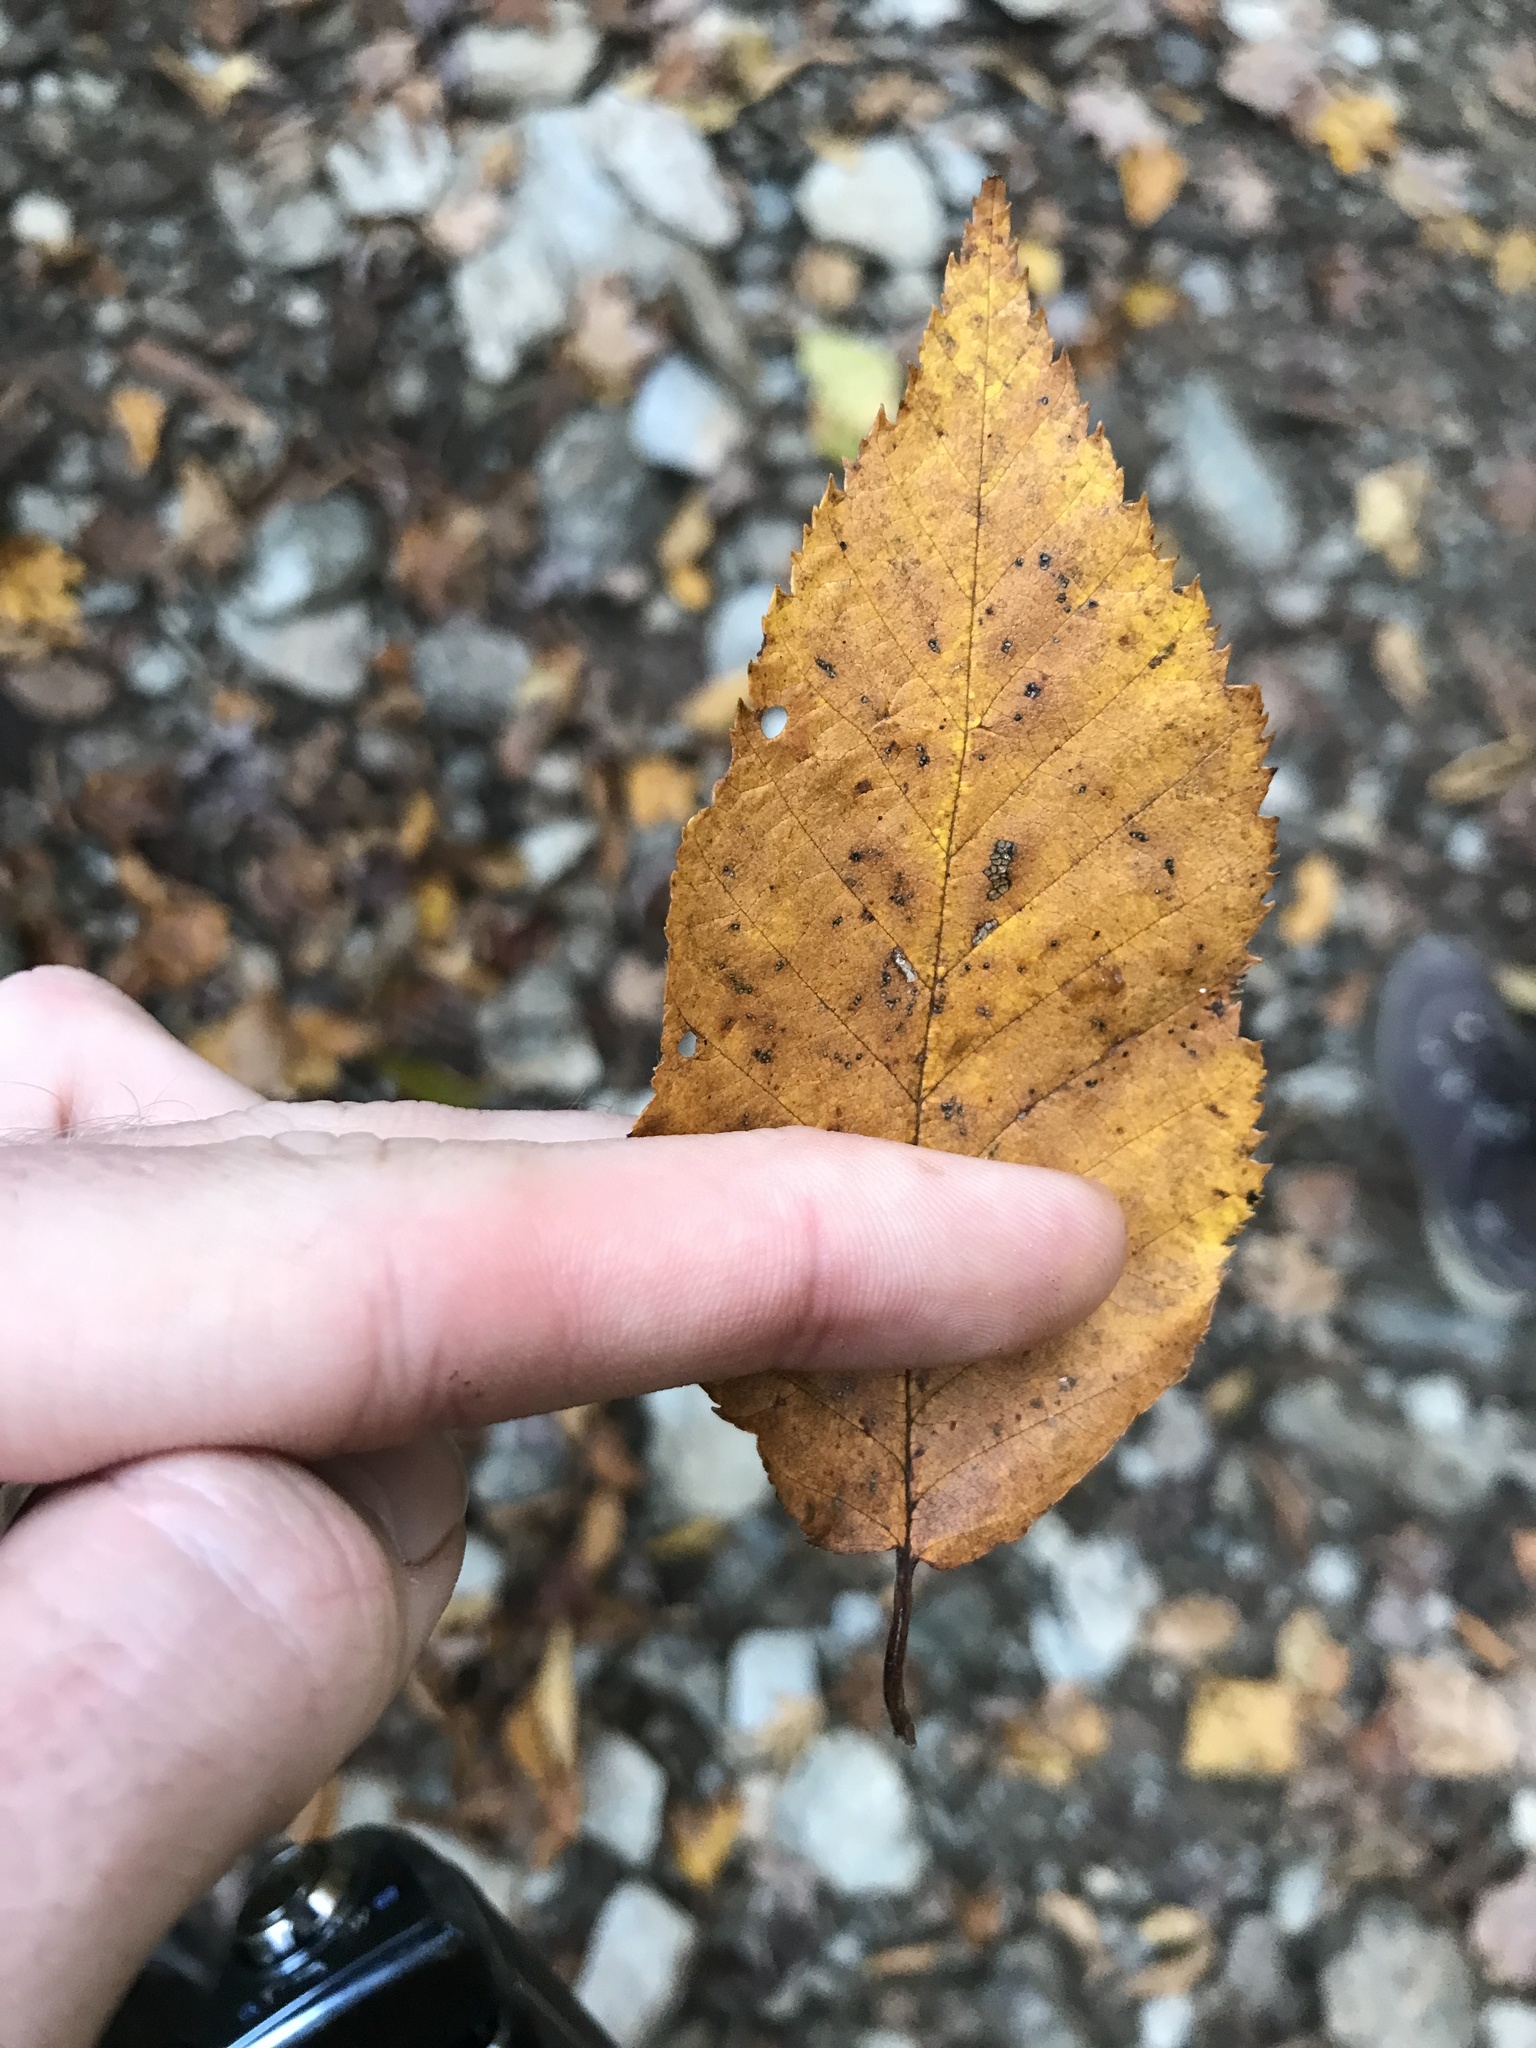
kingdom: Plantae
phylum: Tracheophyta
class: Magnoliopsida
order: Fagales
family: Betulaceae
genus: Betula
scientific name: Betula alleghaniensis
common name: Yellow birch
